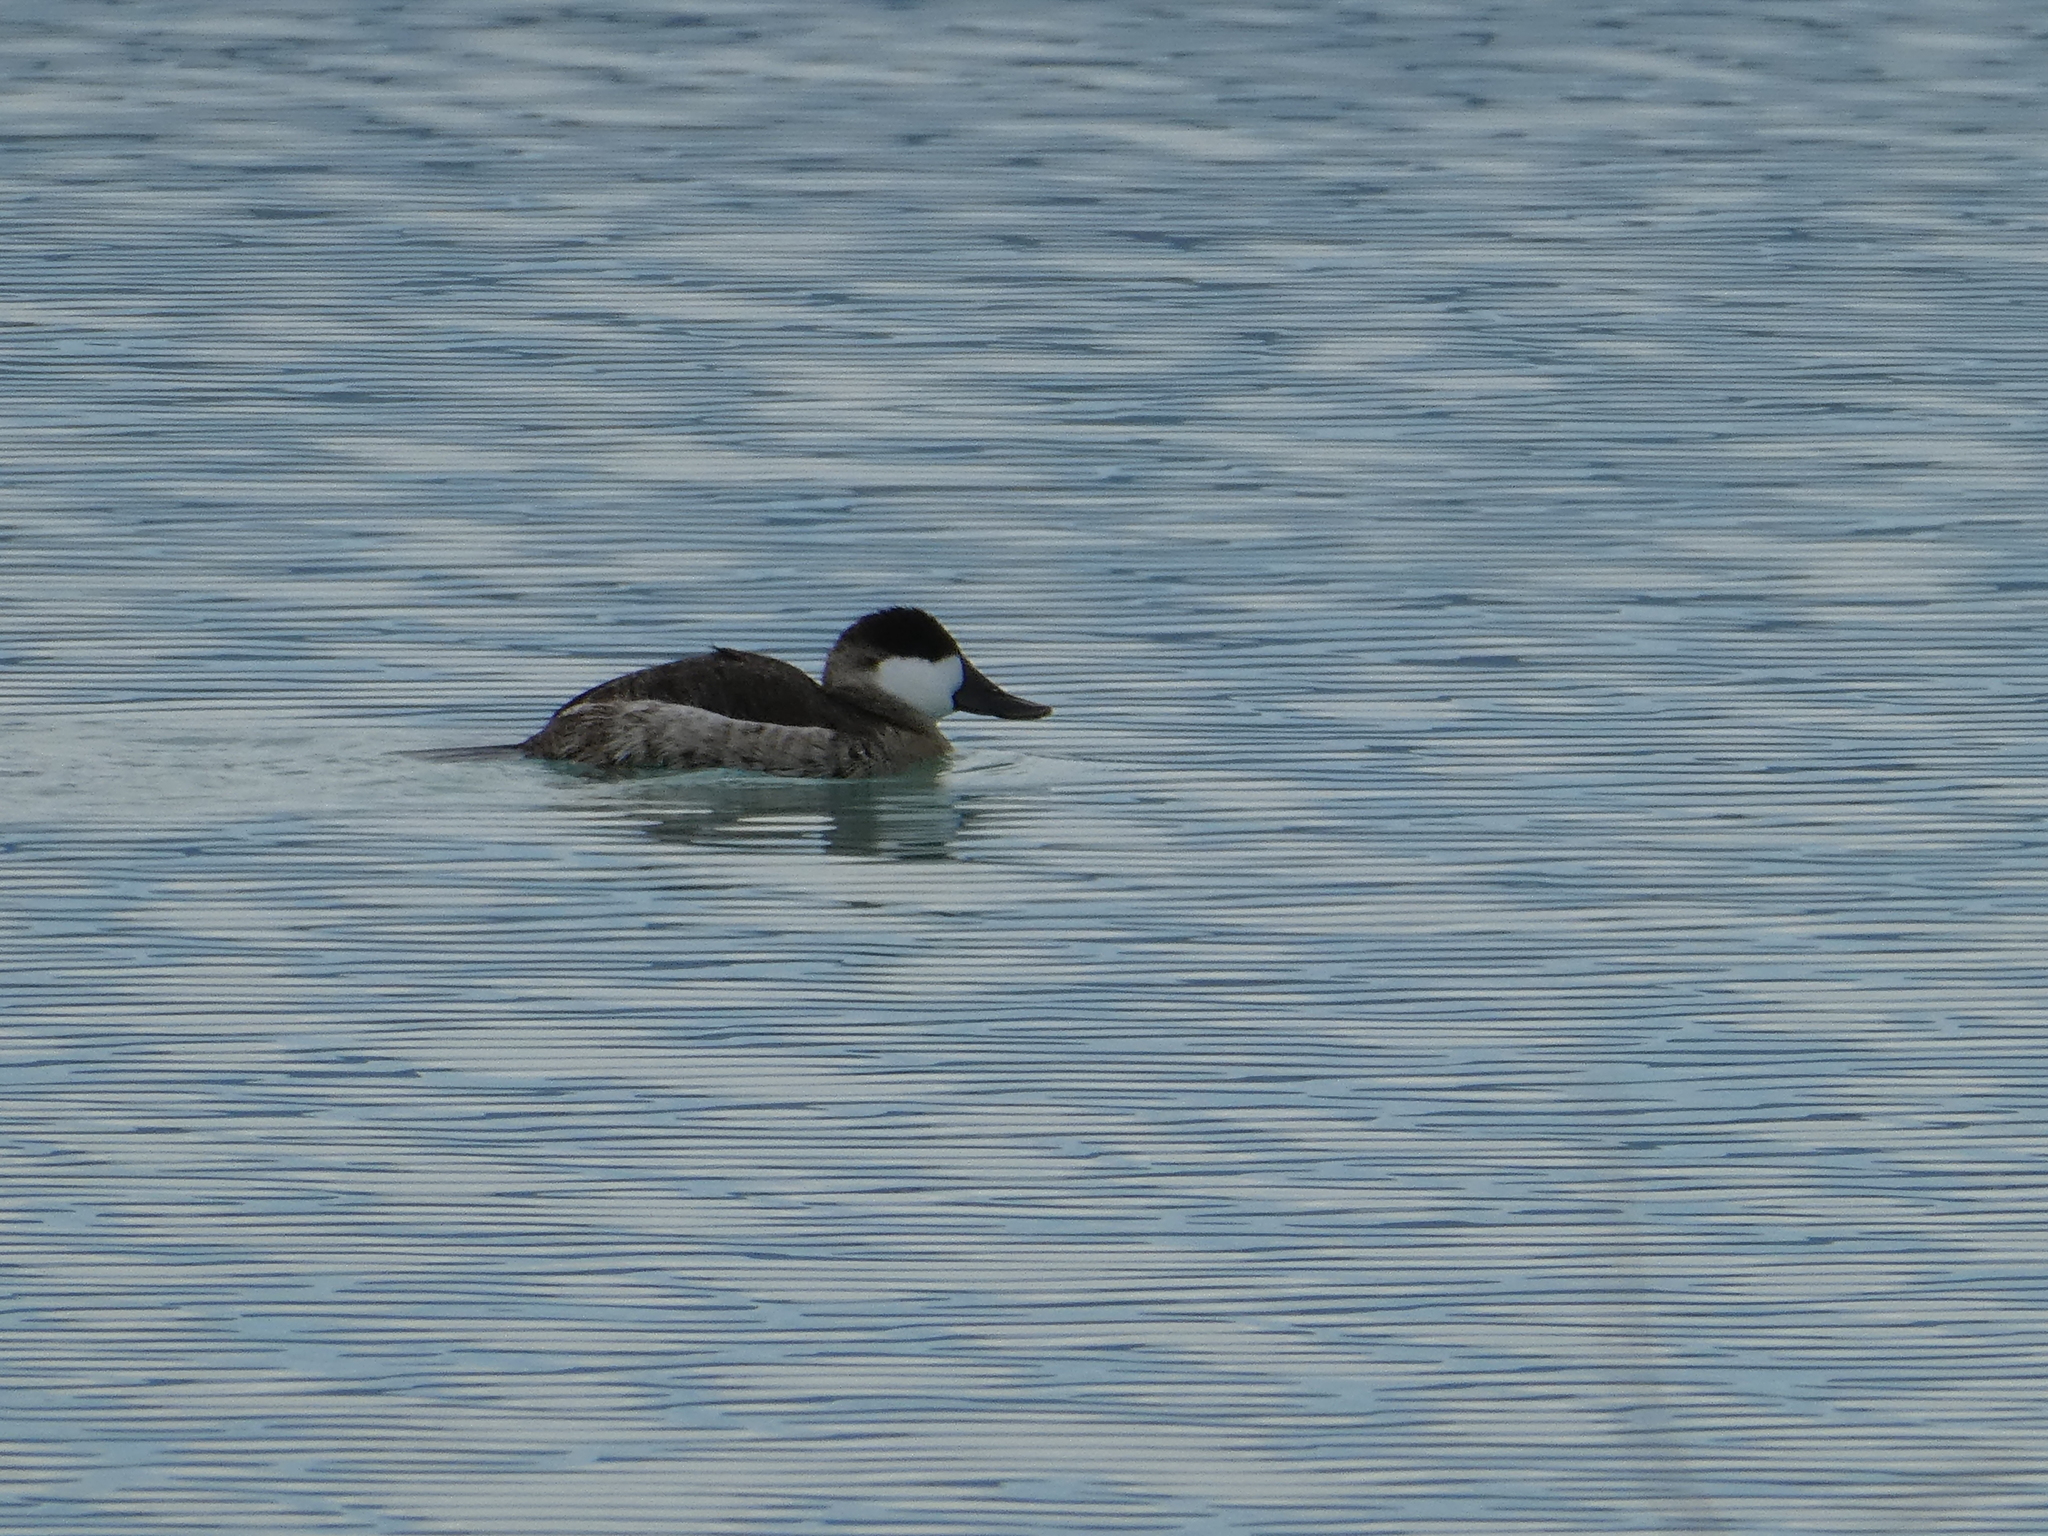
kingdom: Animalia
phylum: Chordata
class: Aves
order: Anseriformes
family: Anatidae
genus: Oxyura
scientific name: Oxyura jamaicensis
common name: Ruddy duck
